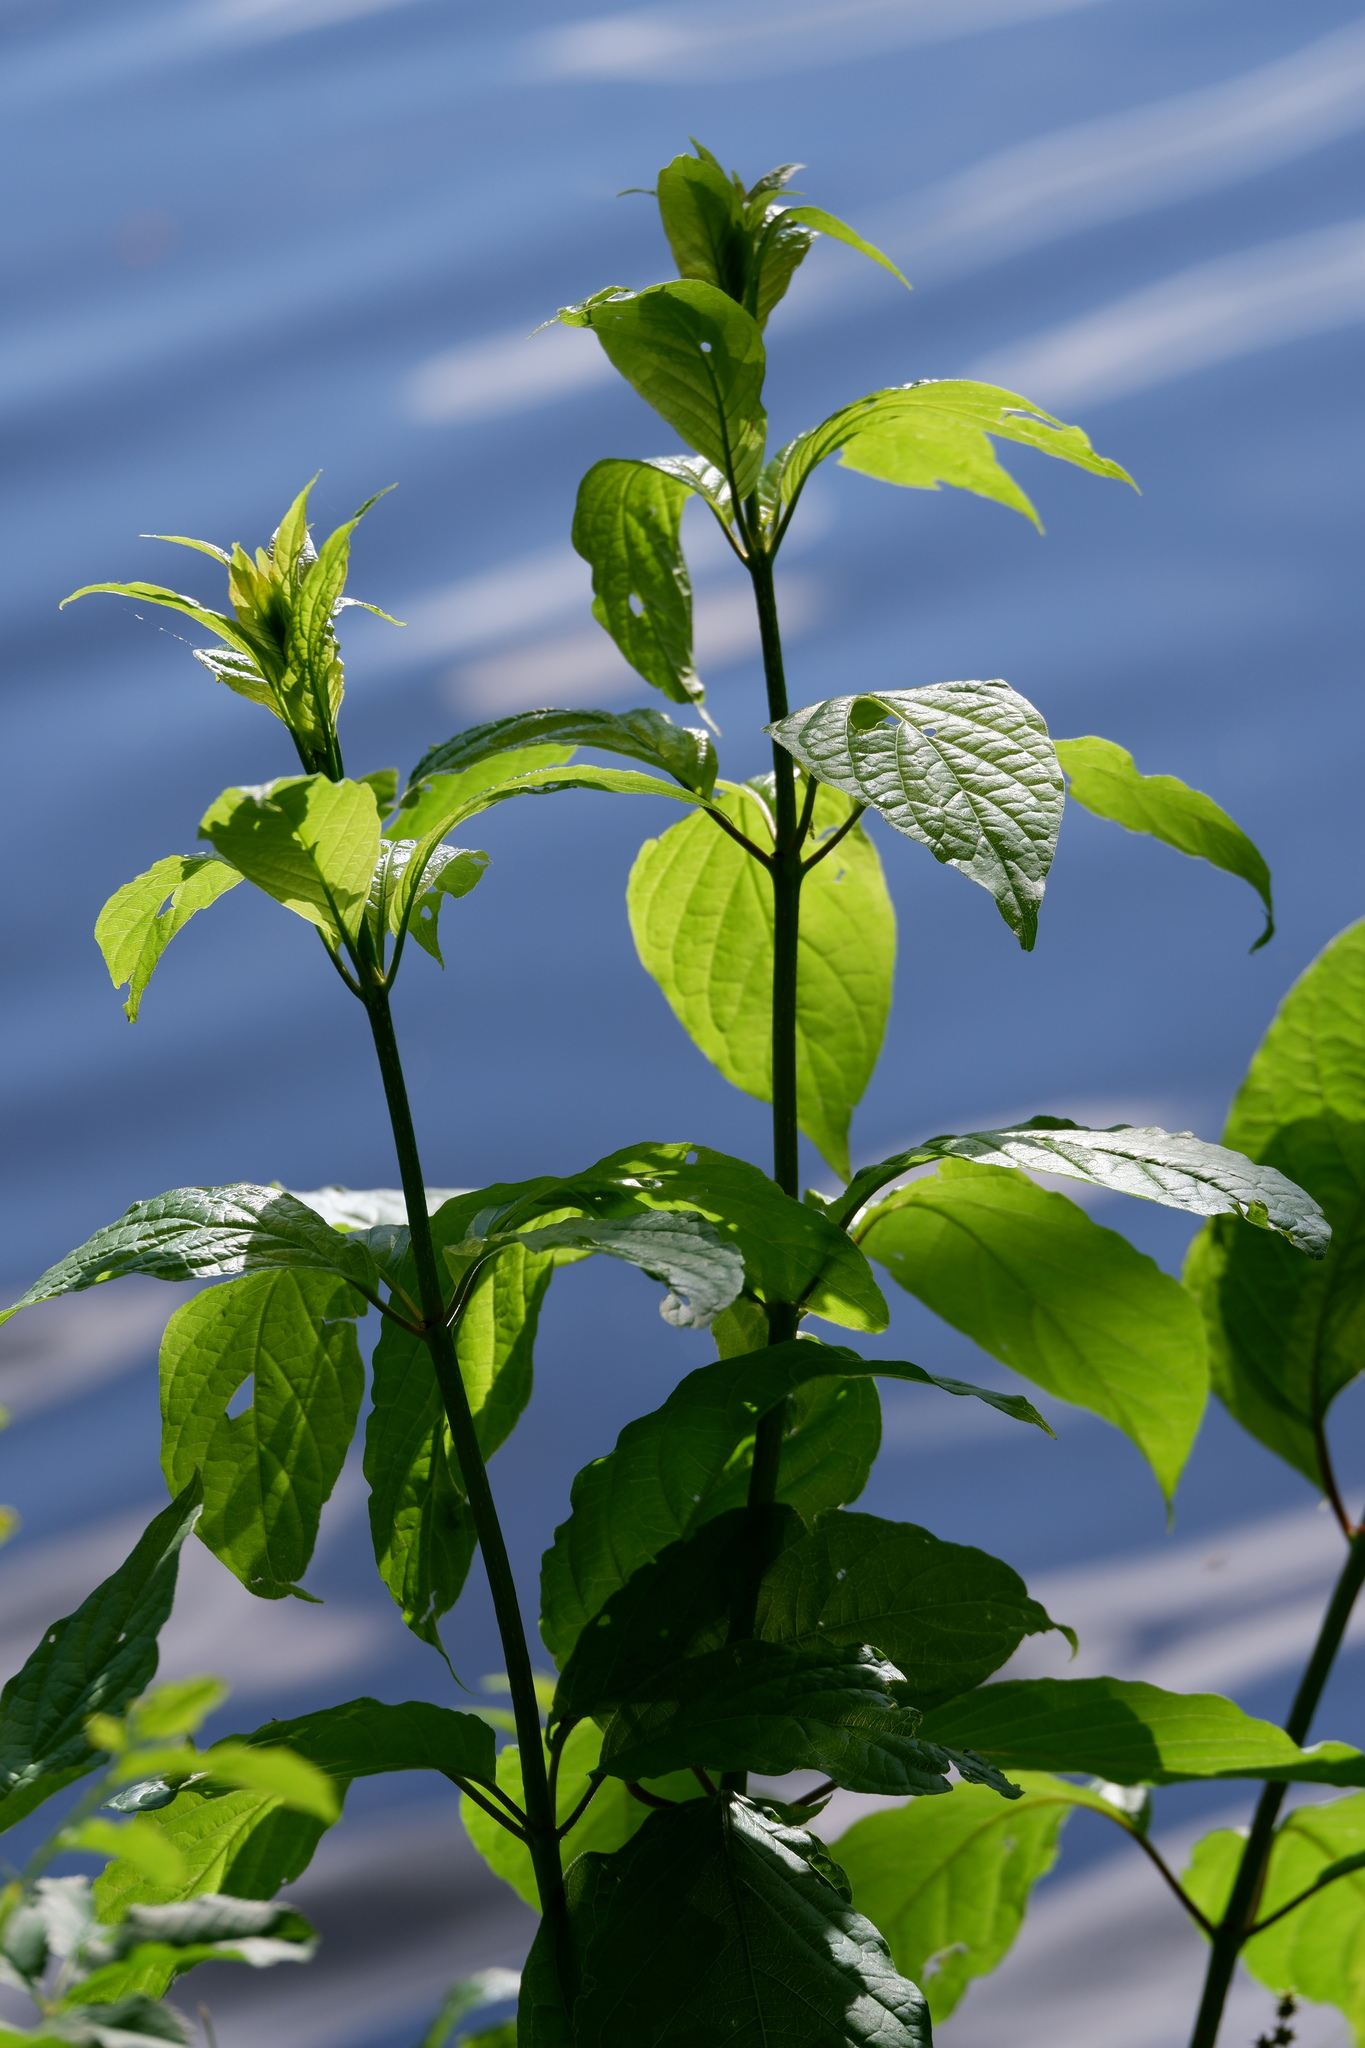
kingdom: Plantae
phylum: Tracheophyta
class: Magnoliopsida
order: Gentianales
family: Rubiaceae
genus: Cephalanthus
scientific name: Cephalanthus occidentalis
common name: Button-willow
